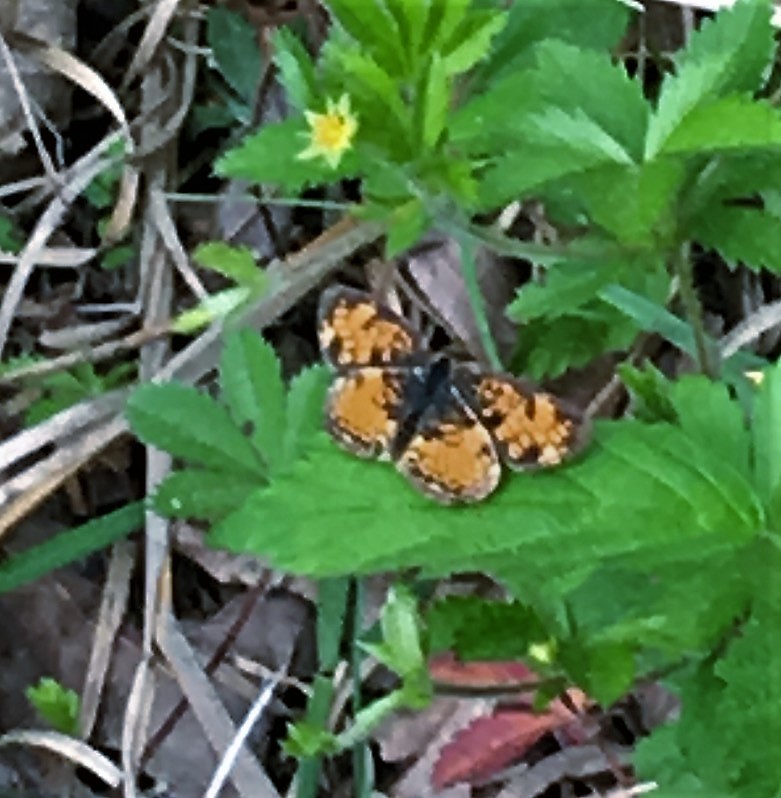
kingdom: Animalia
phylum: Arthropoda
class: Insecta
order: Lepidoptera
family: Nymphalidae
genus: Phyciodes
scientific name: Phyciodes tharos
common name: Pearl crescent
